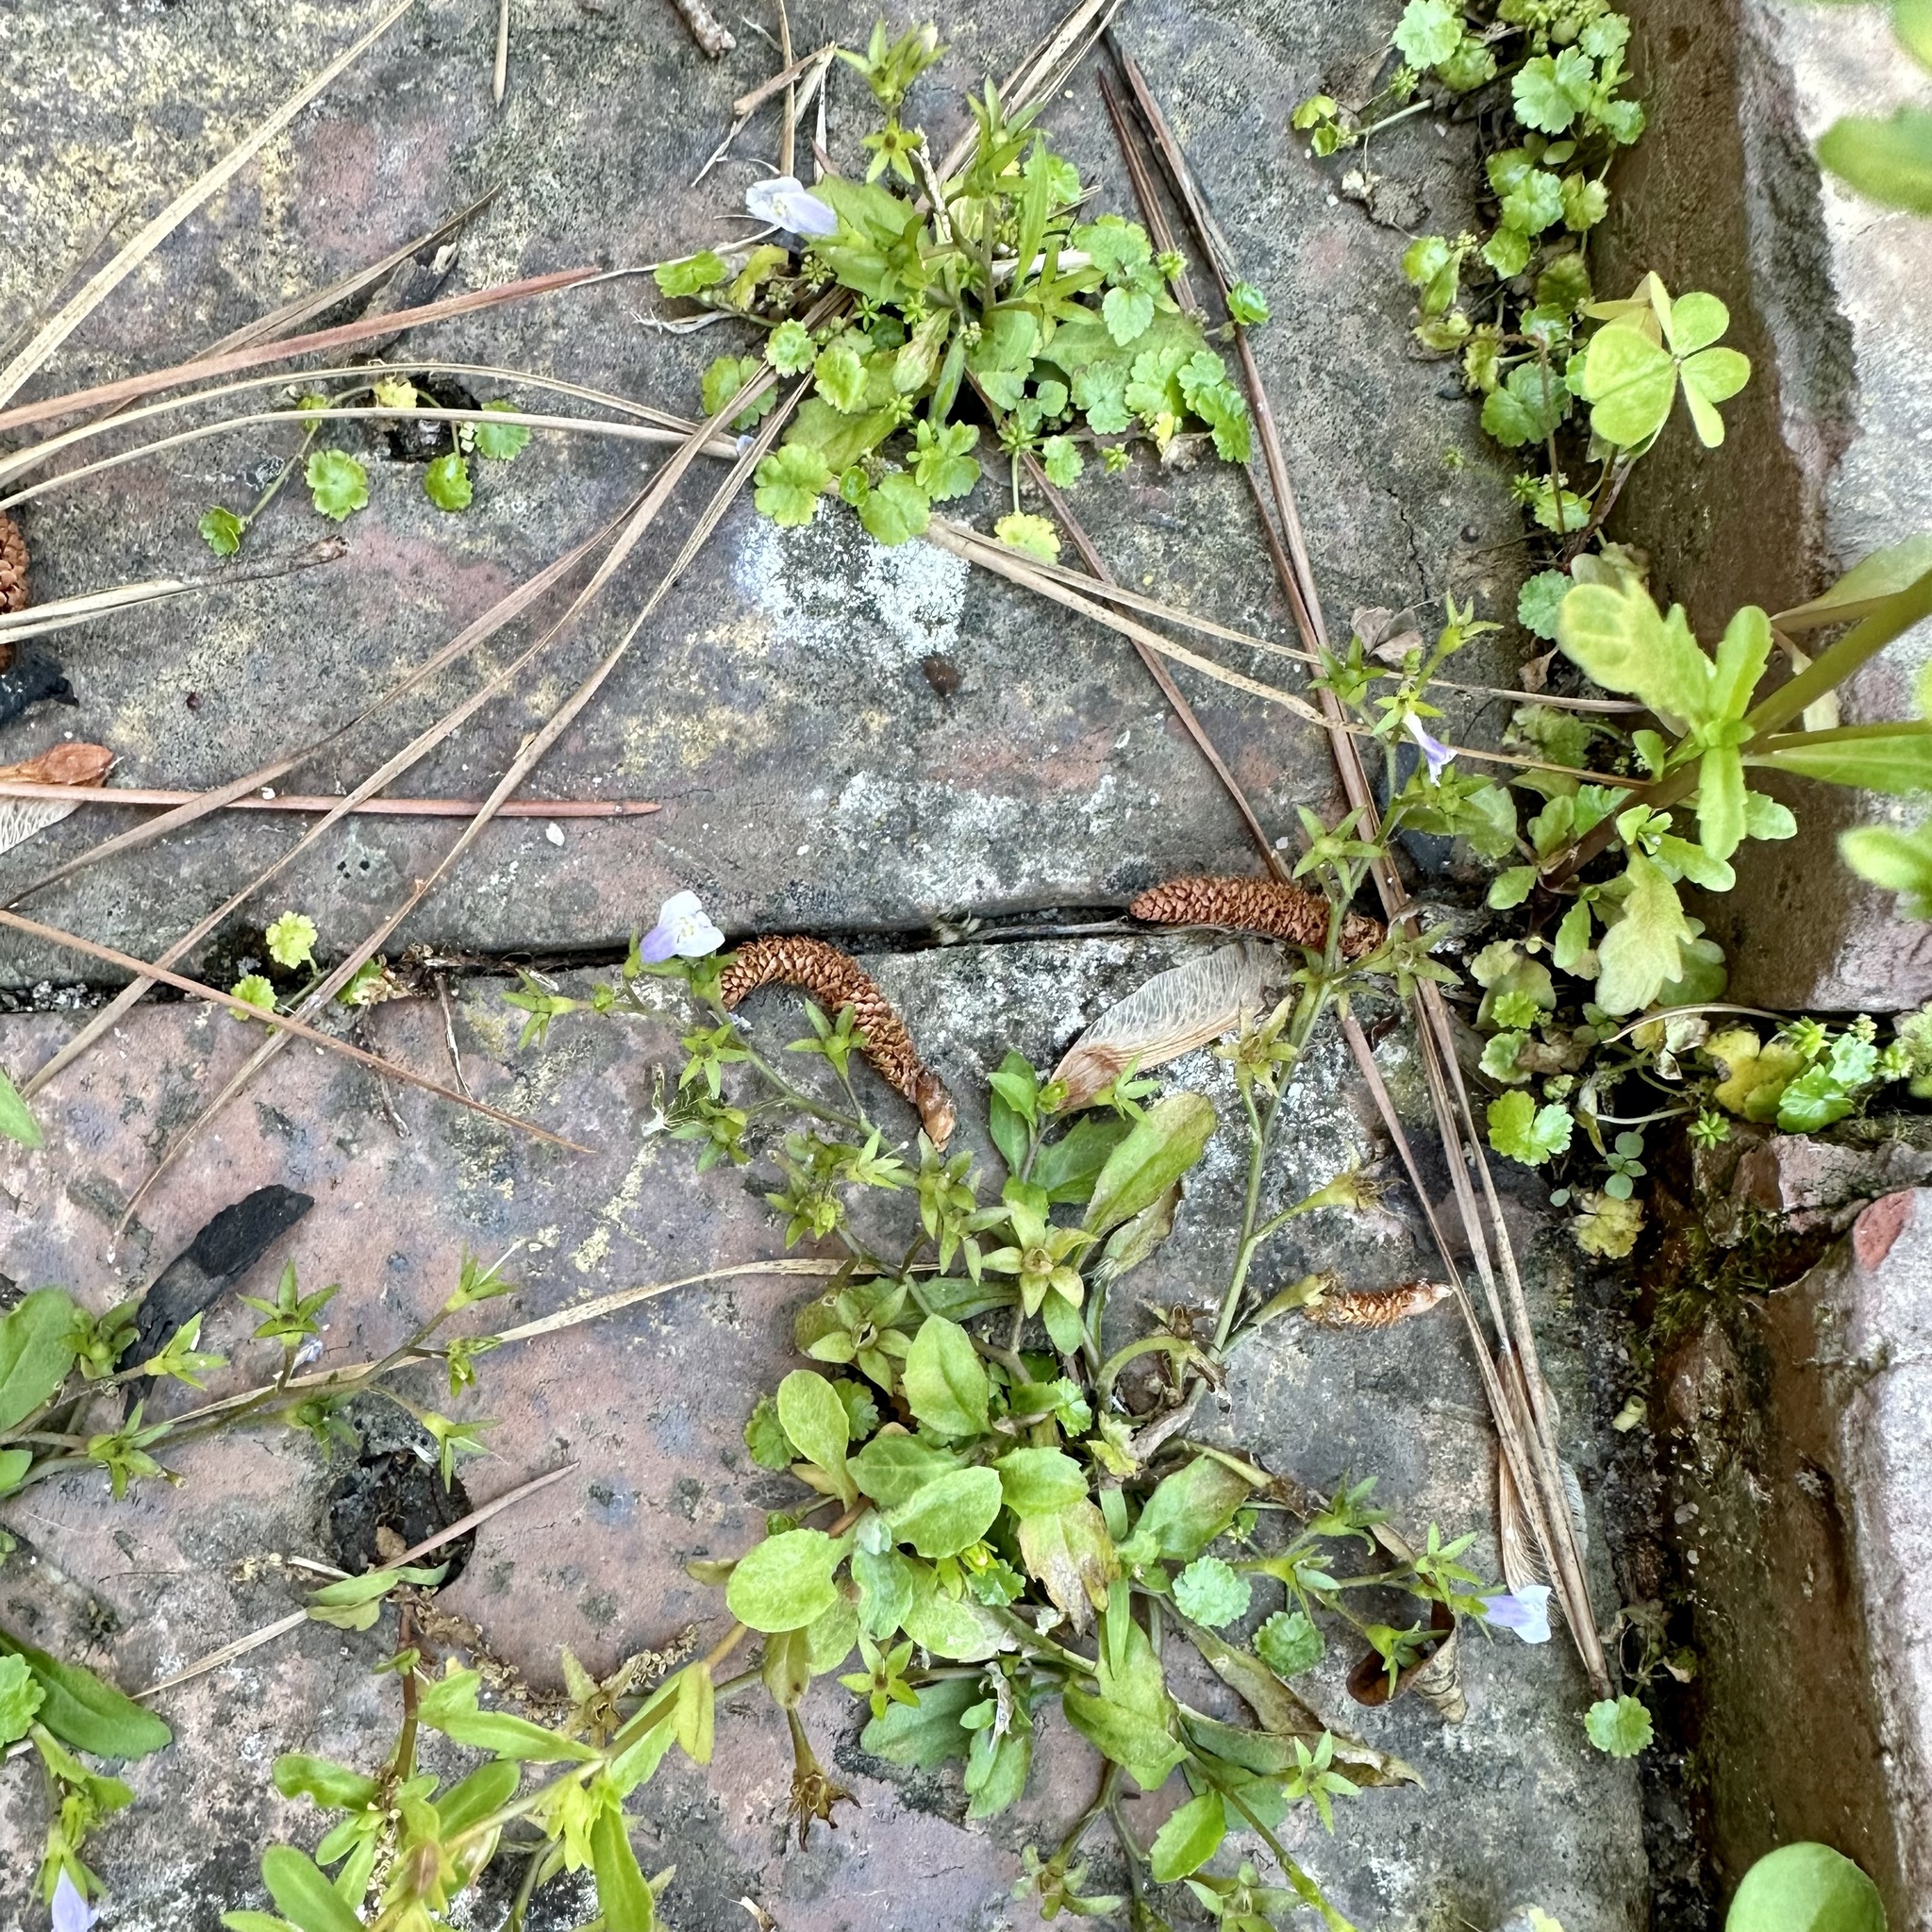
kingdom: Plantae
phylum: Tracheophyta
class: Magnoliopsida
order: Lamiales
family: Mazaceae
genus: Mazus
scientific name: Mazus pumilus
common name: Japanese mazus
